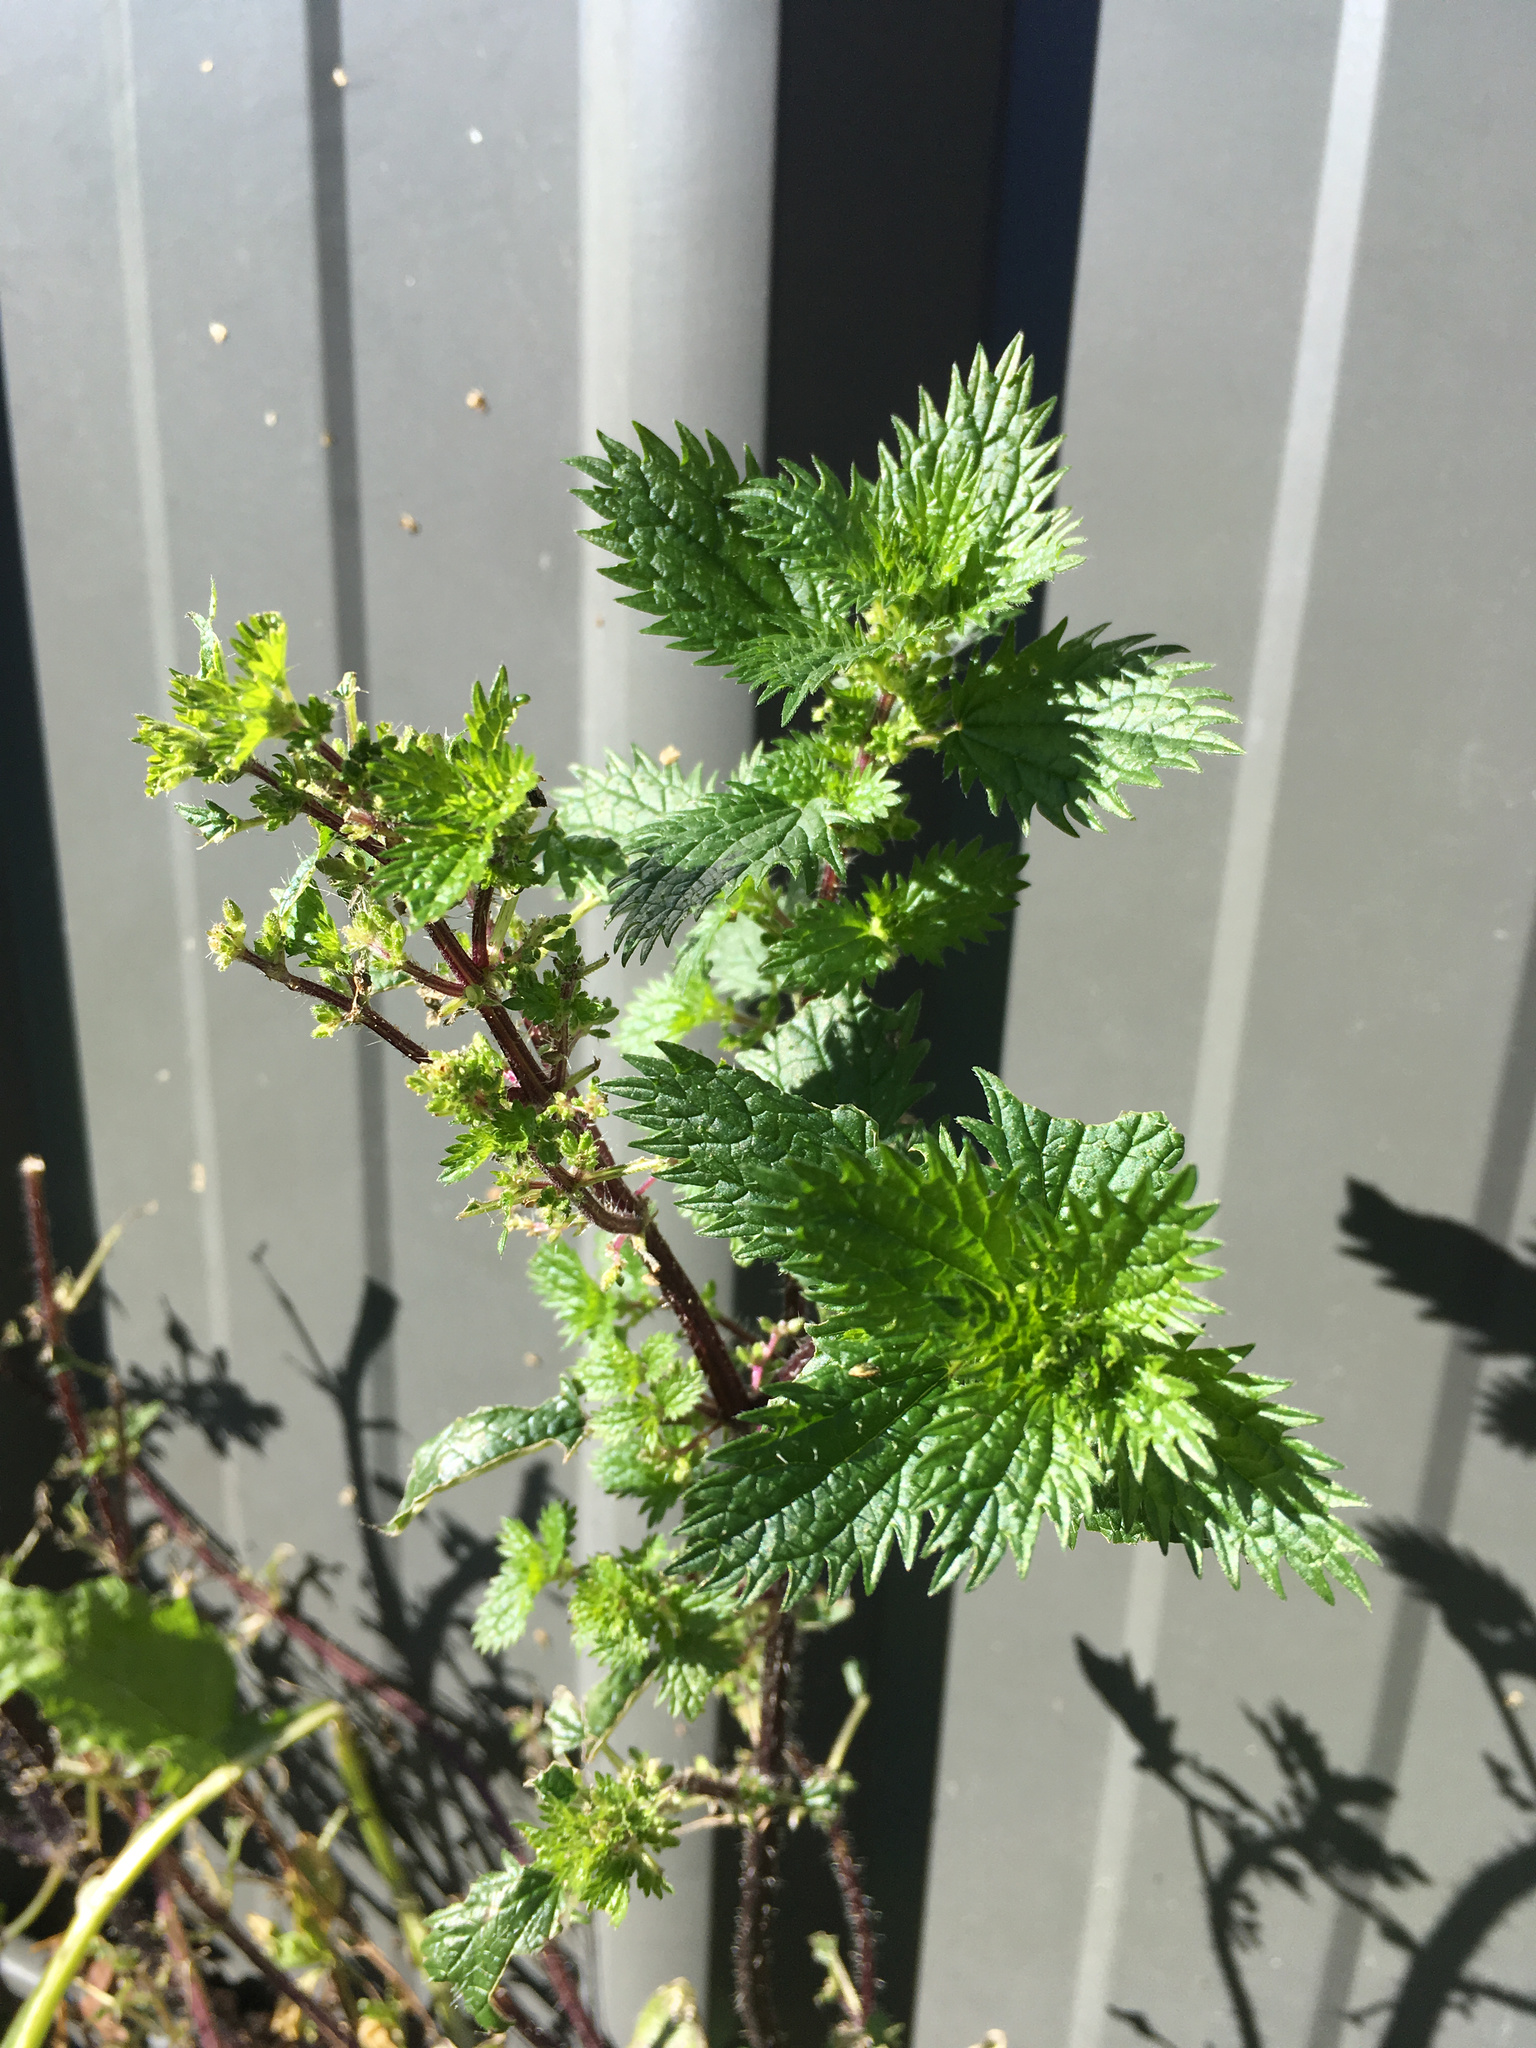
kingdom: Plantae
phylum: Tracheophyta
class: Magnoliopsida
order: Rosales
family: Urticaceae
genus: Urtica
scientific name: Urtica urens
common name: Dwarf nettle
